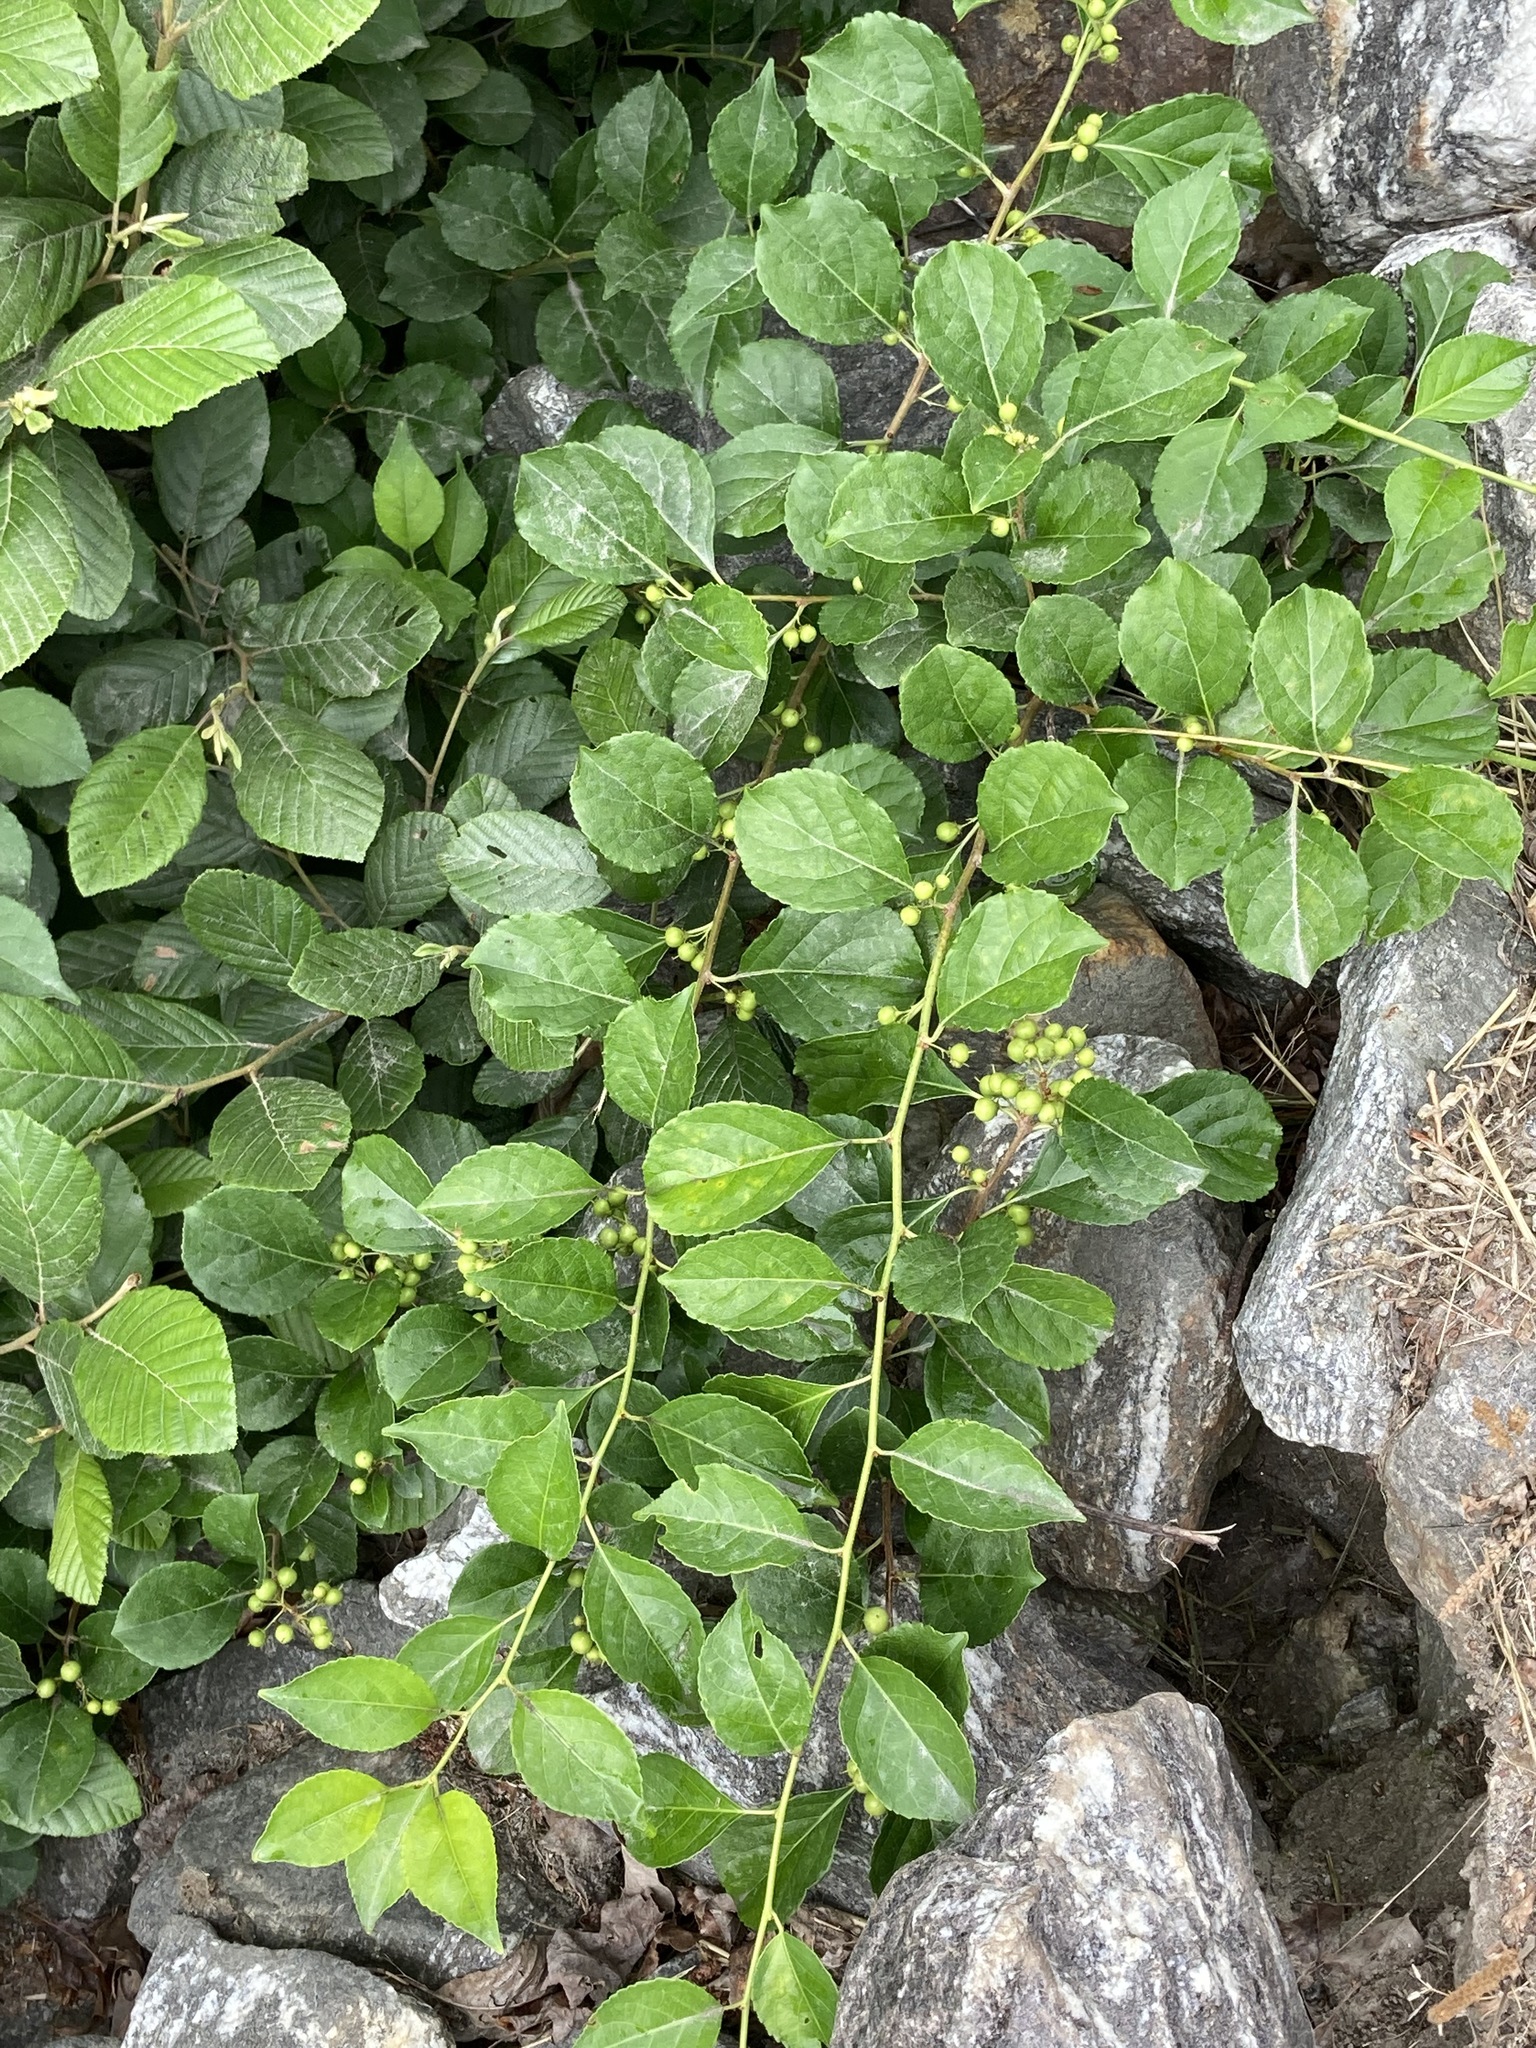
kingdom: Plantae
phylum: Tracheophyta
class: Magnoliopsida
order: Celastrales
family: Celastraceae
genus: Celastrus
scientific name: Celastrus orbiculatus
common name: Oriental bittersweet
